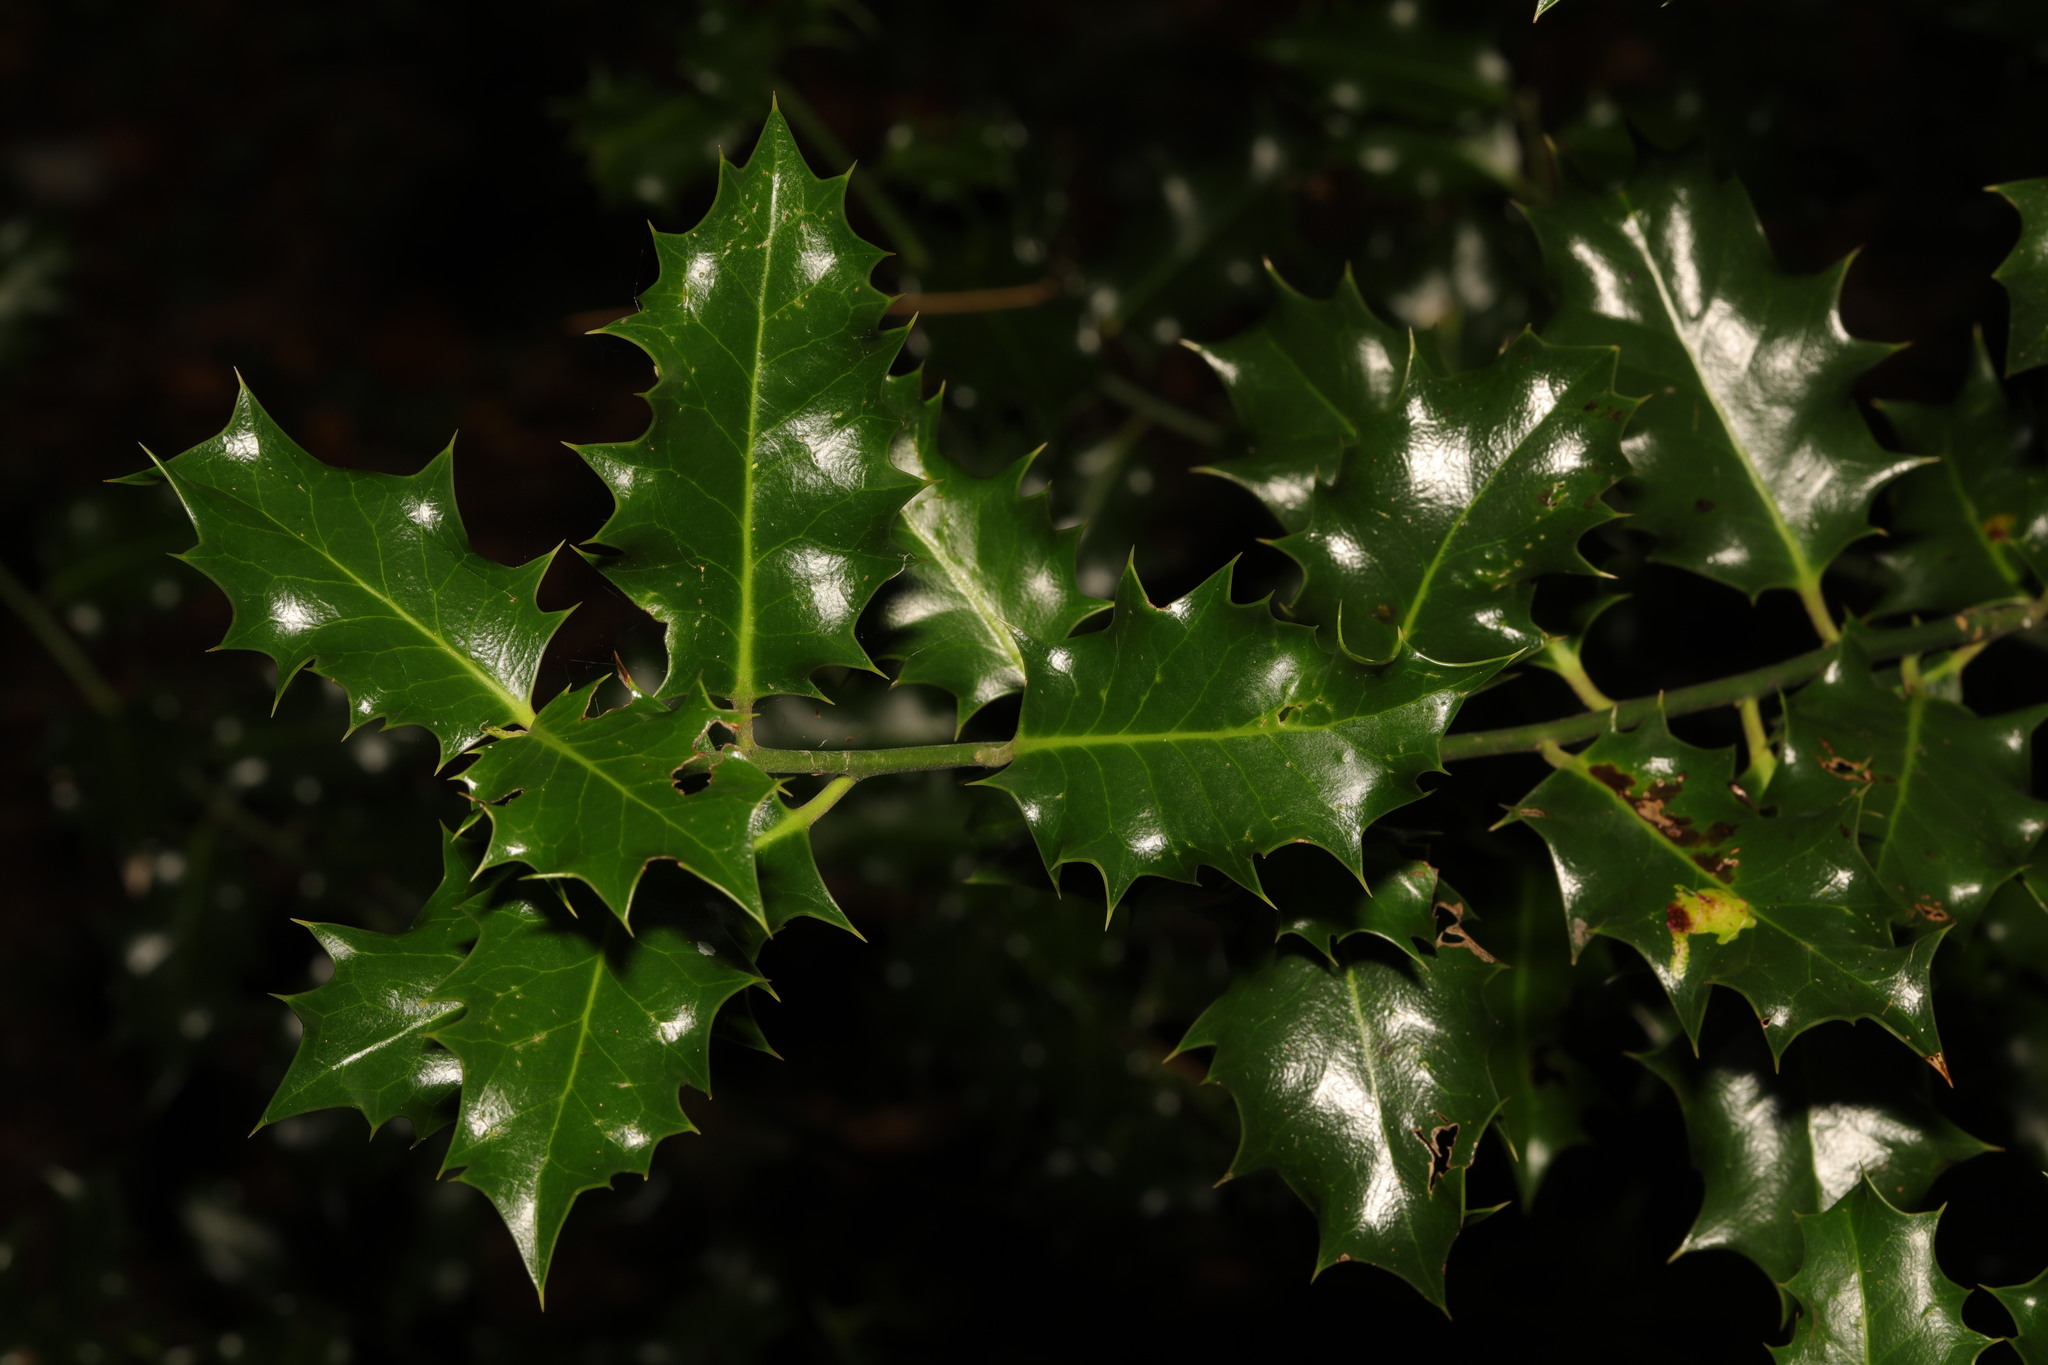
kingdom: Plantae
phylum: Tracheophyta
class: Magnoliopsida
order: Aquifoliales
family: Aquifoliaceae
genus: Ilex
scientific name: Ilex aquifolium
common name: English holly
